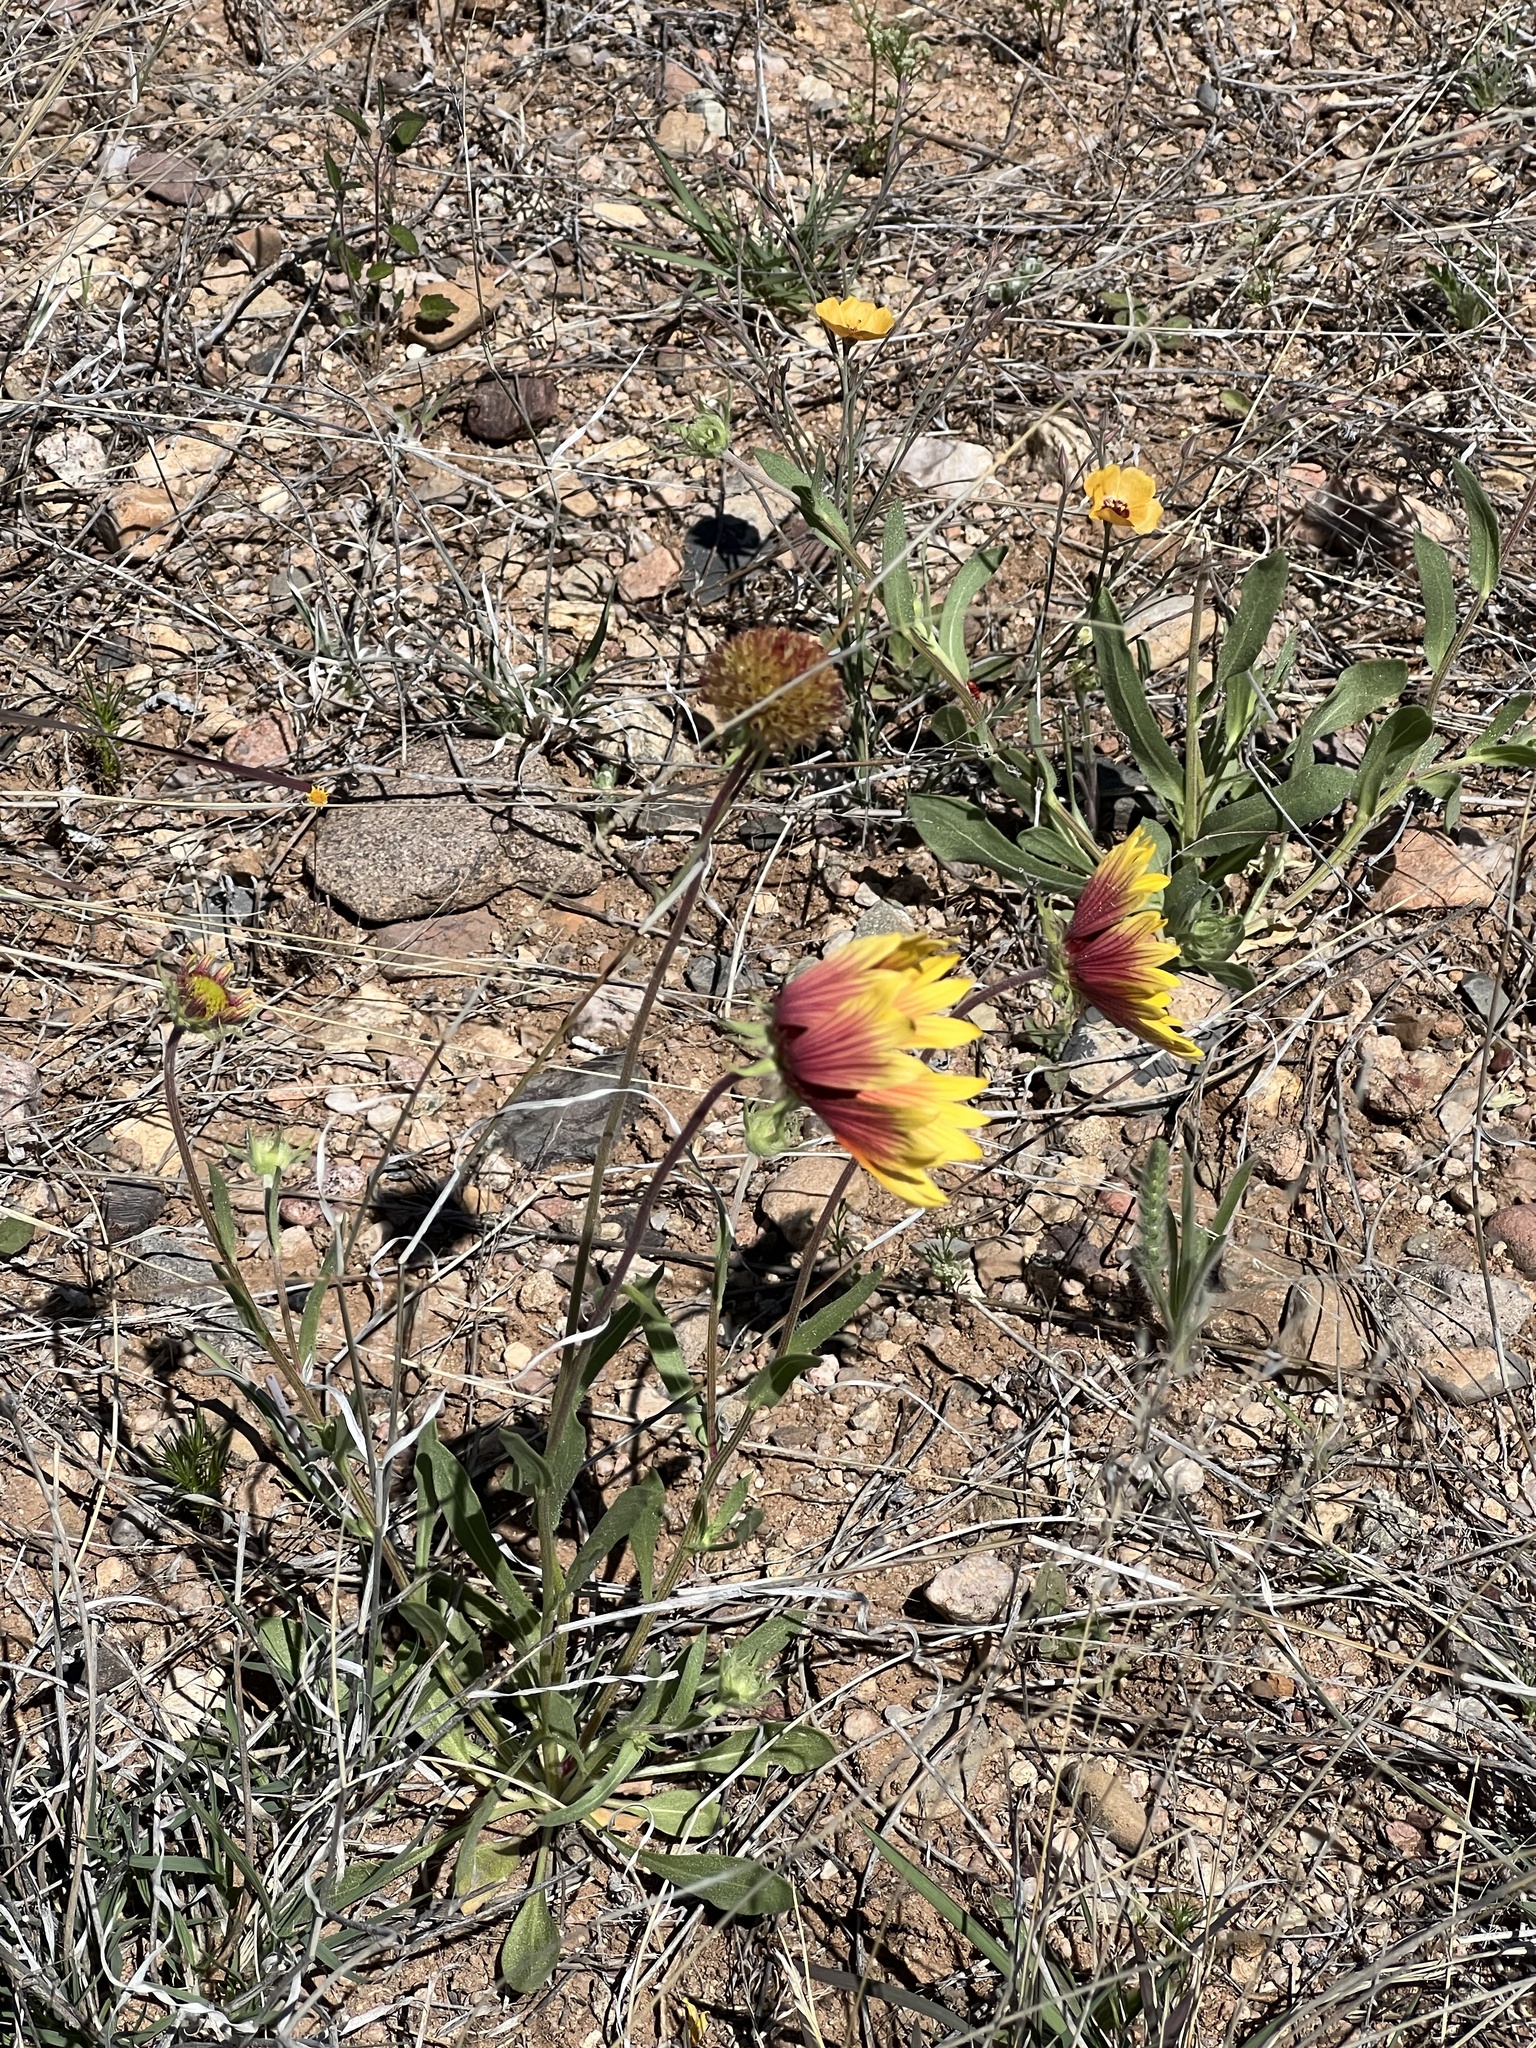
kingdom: Plantae
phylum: Tracheophyta
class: Magnoliopsida
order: Asterales
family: Asteraceae
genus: Gaillardia
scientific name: Gaillardia pulchella
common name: Firewheel
